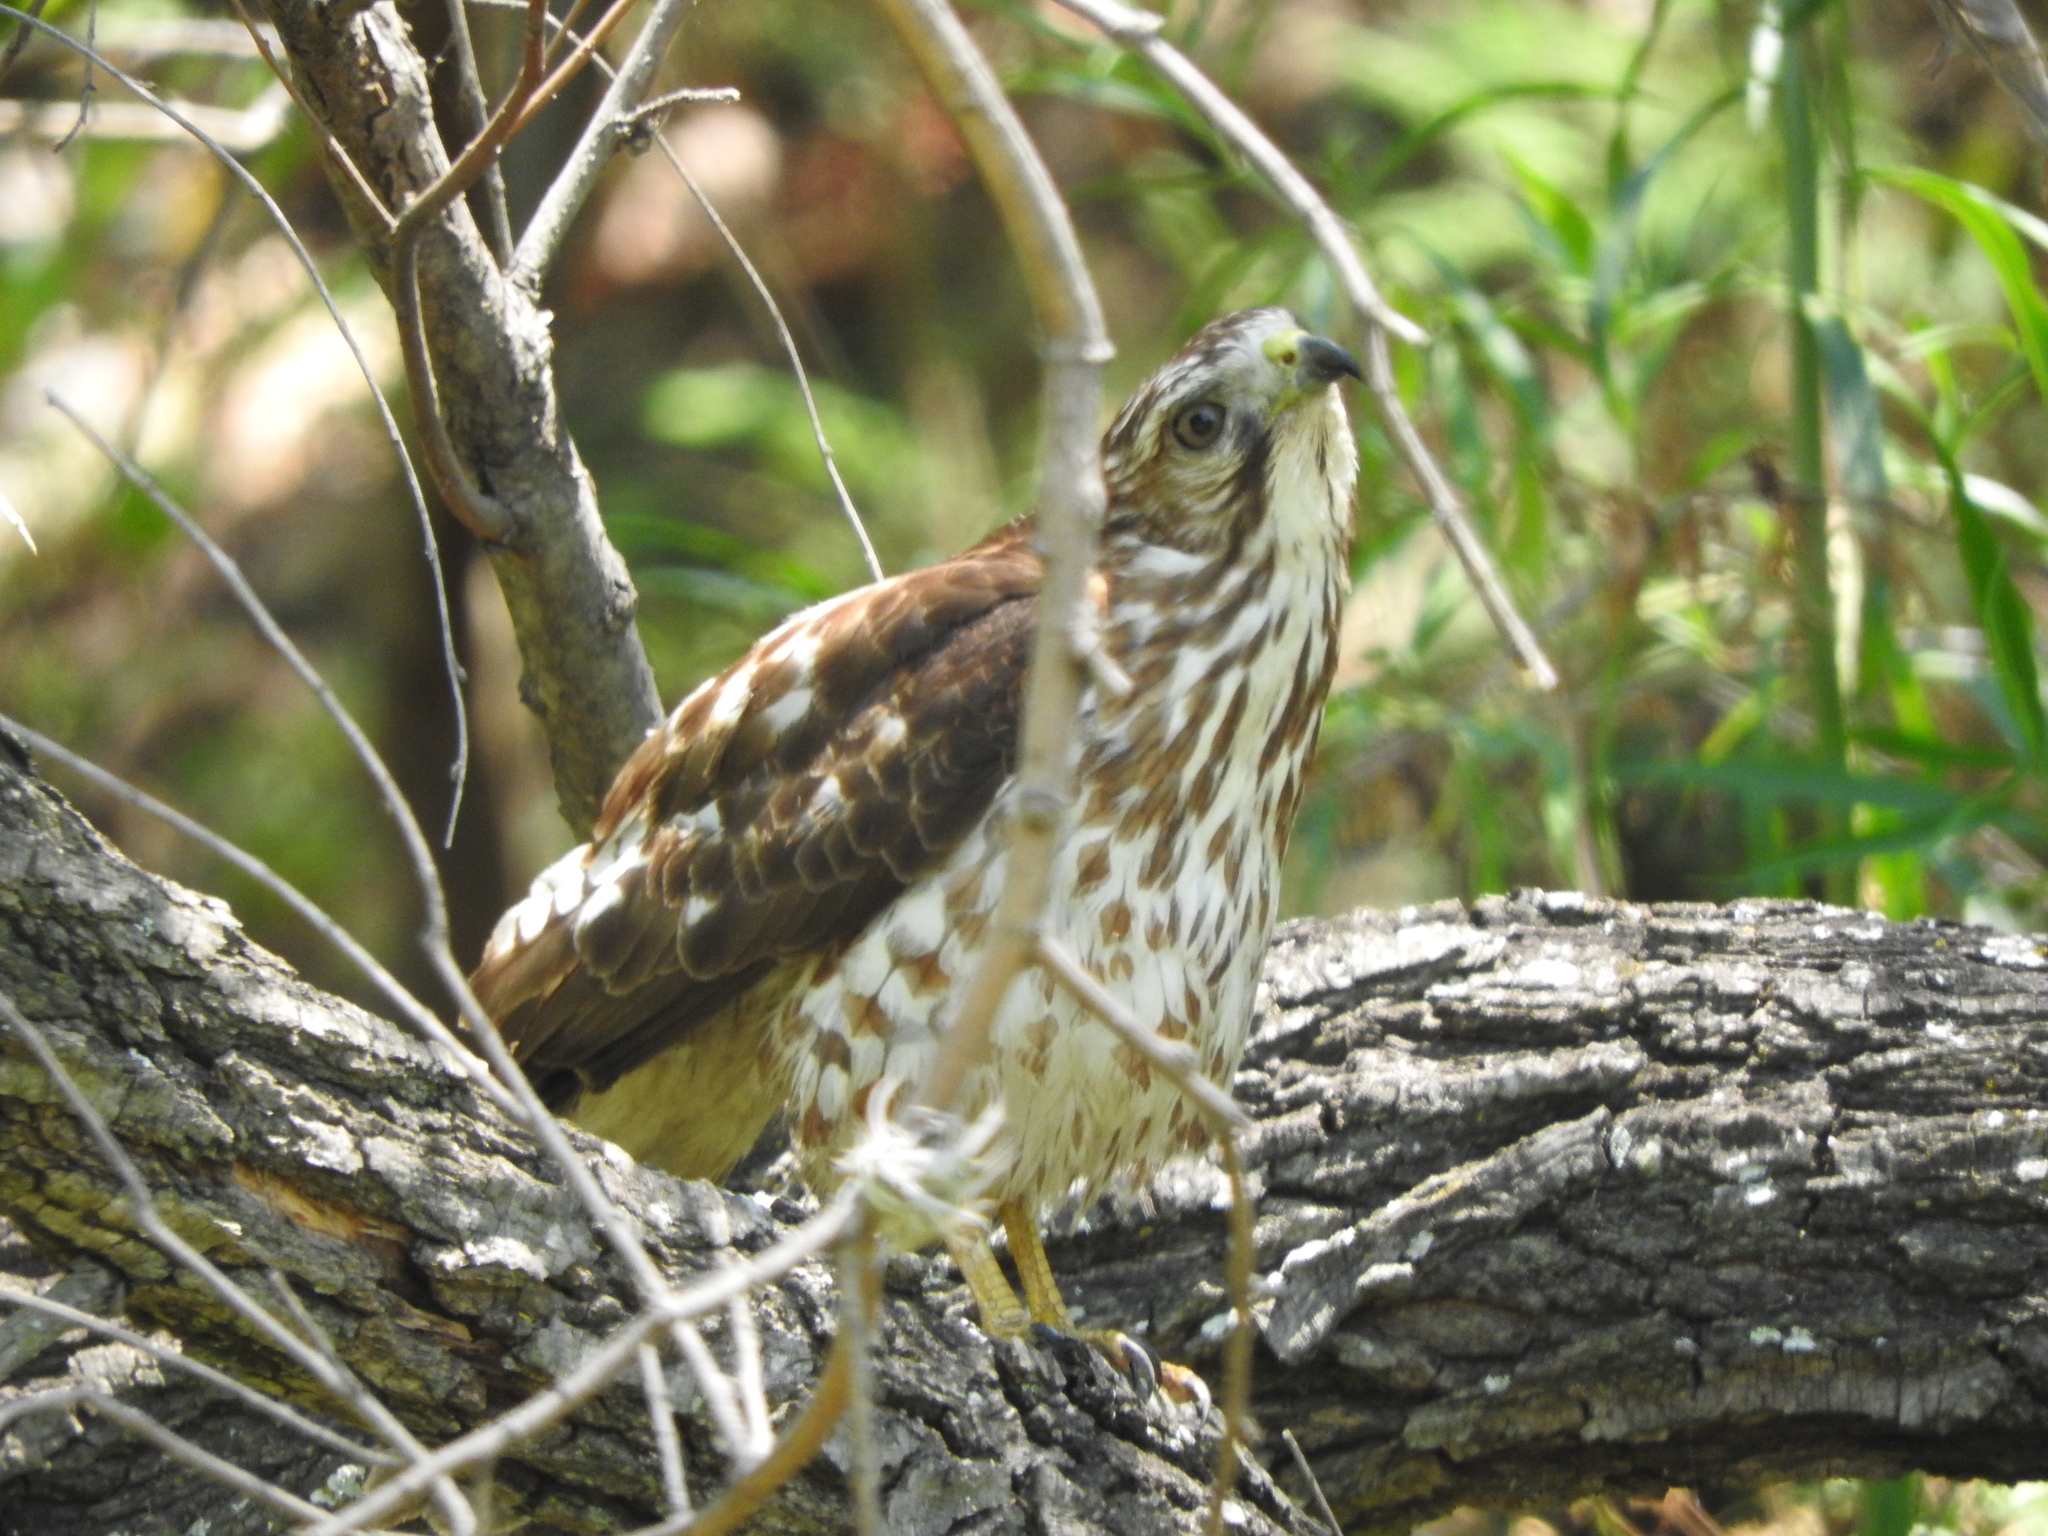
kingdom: Animalia
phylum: Chordata
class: Aves
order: Accipitriformes
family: Accipitridae
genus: Buteo
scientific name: Buteo platypterus
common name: Broad-winged hawk
